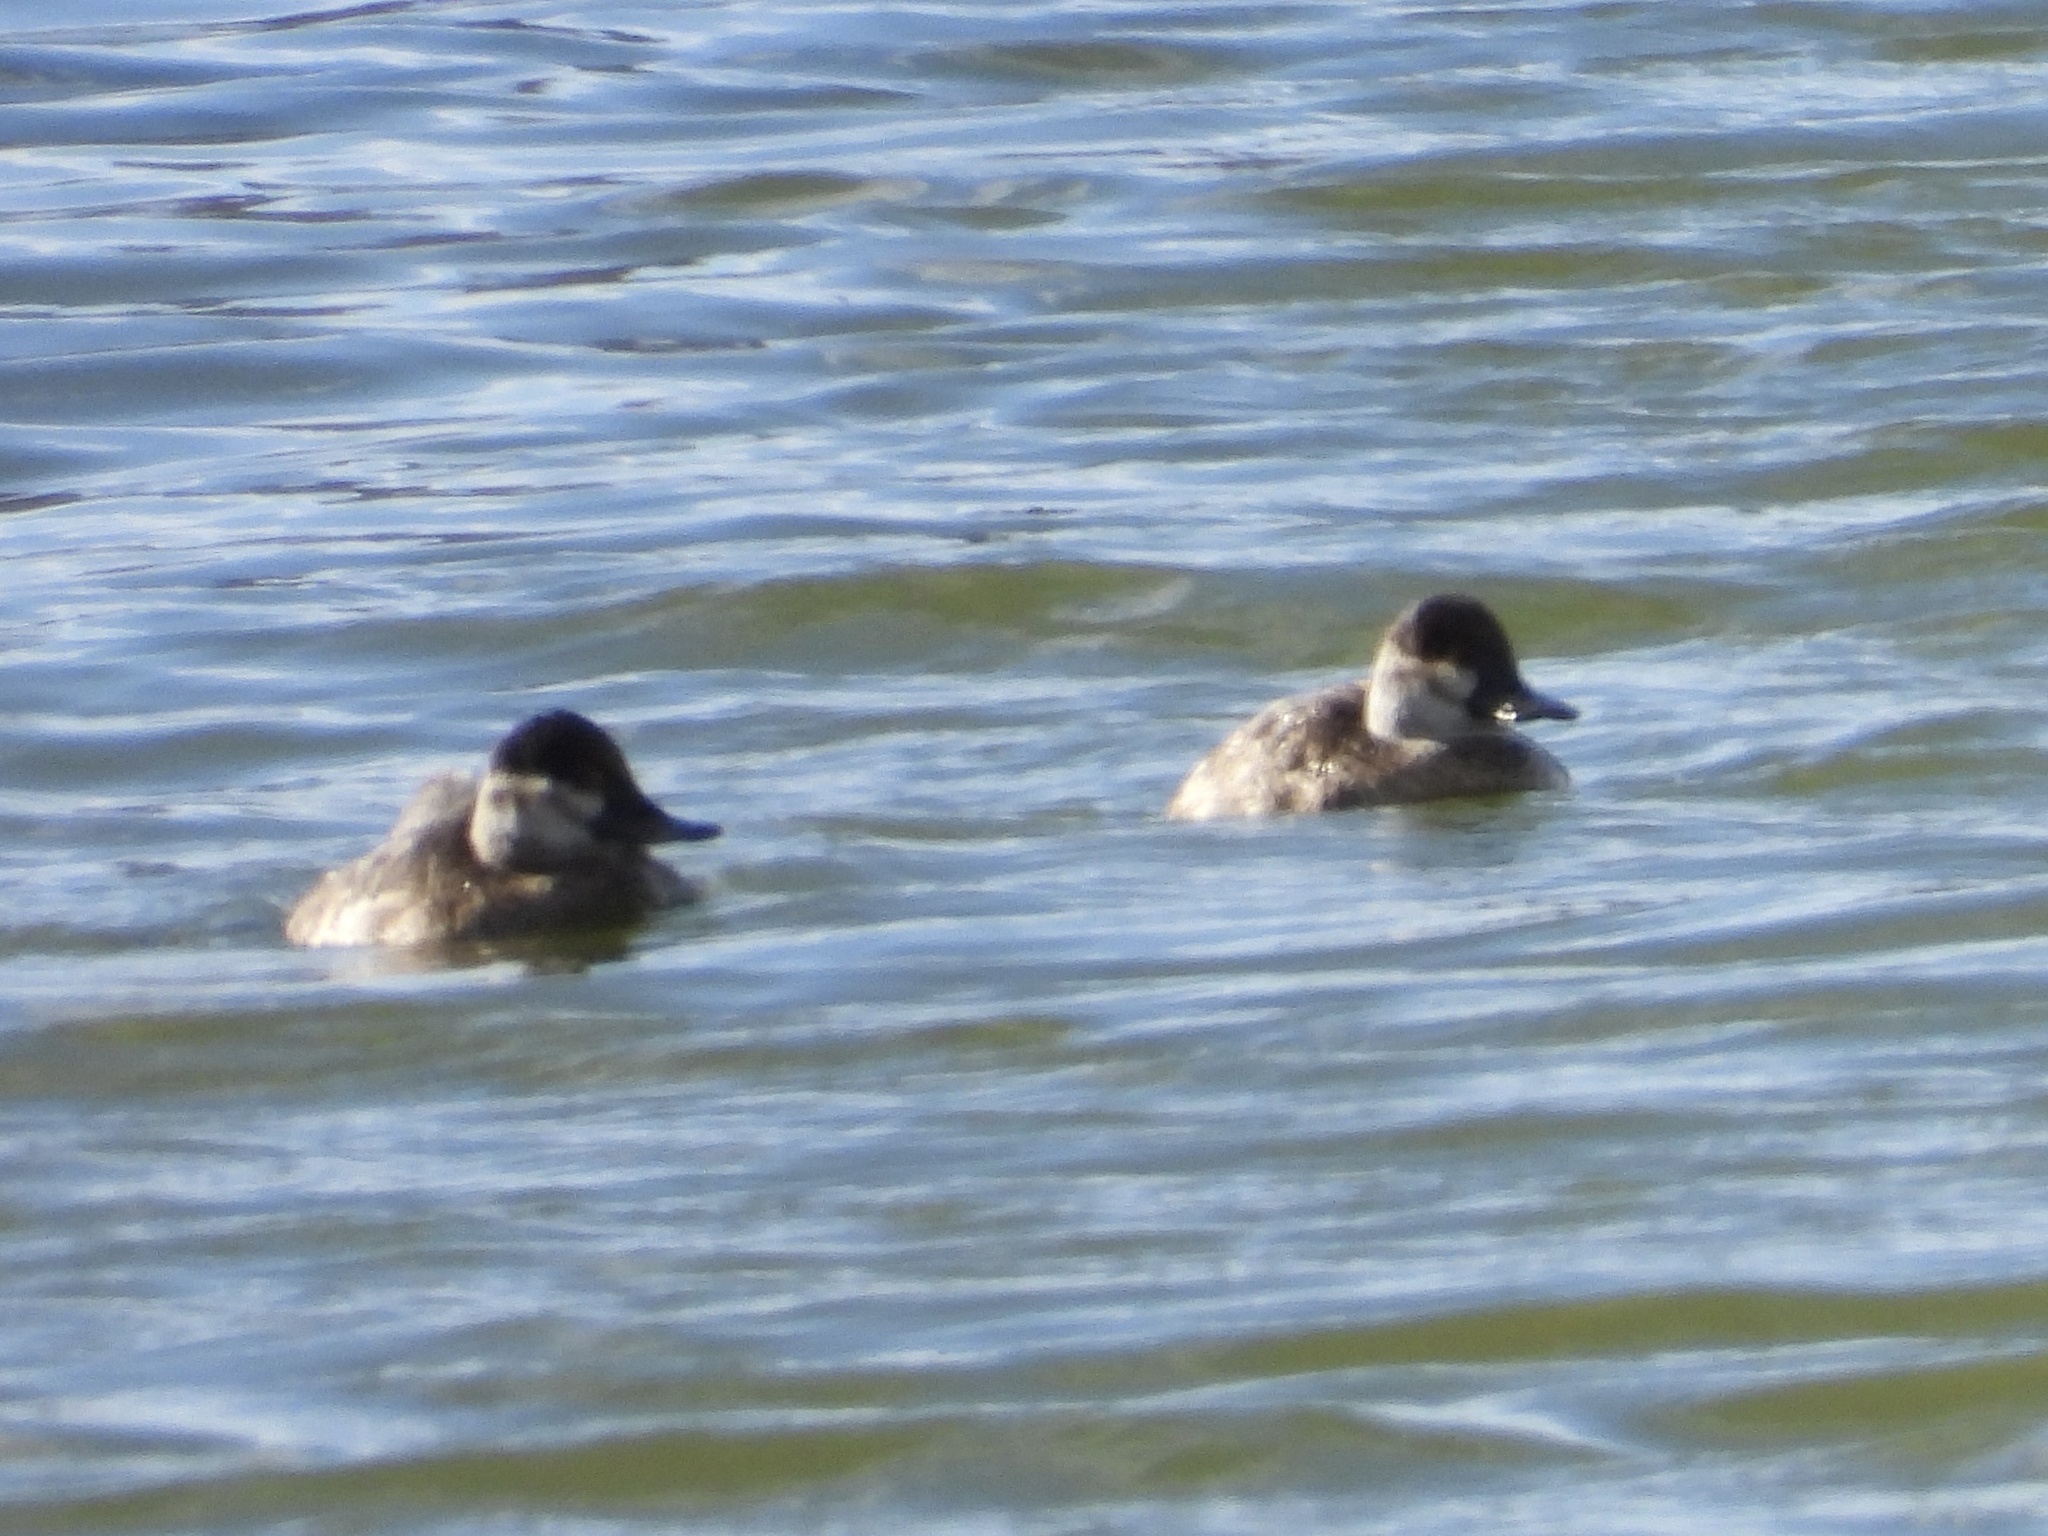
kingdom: Animalia
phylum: Chordata
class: Aves
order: Anseriformes
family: Anatidae
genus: Oxyura
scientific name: Oxyura jamaicensis
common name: Ruddy duck
